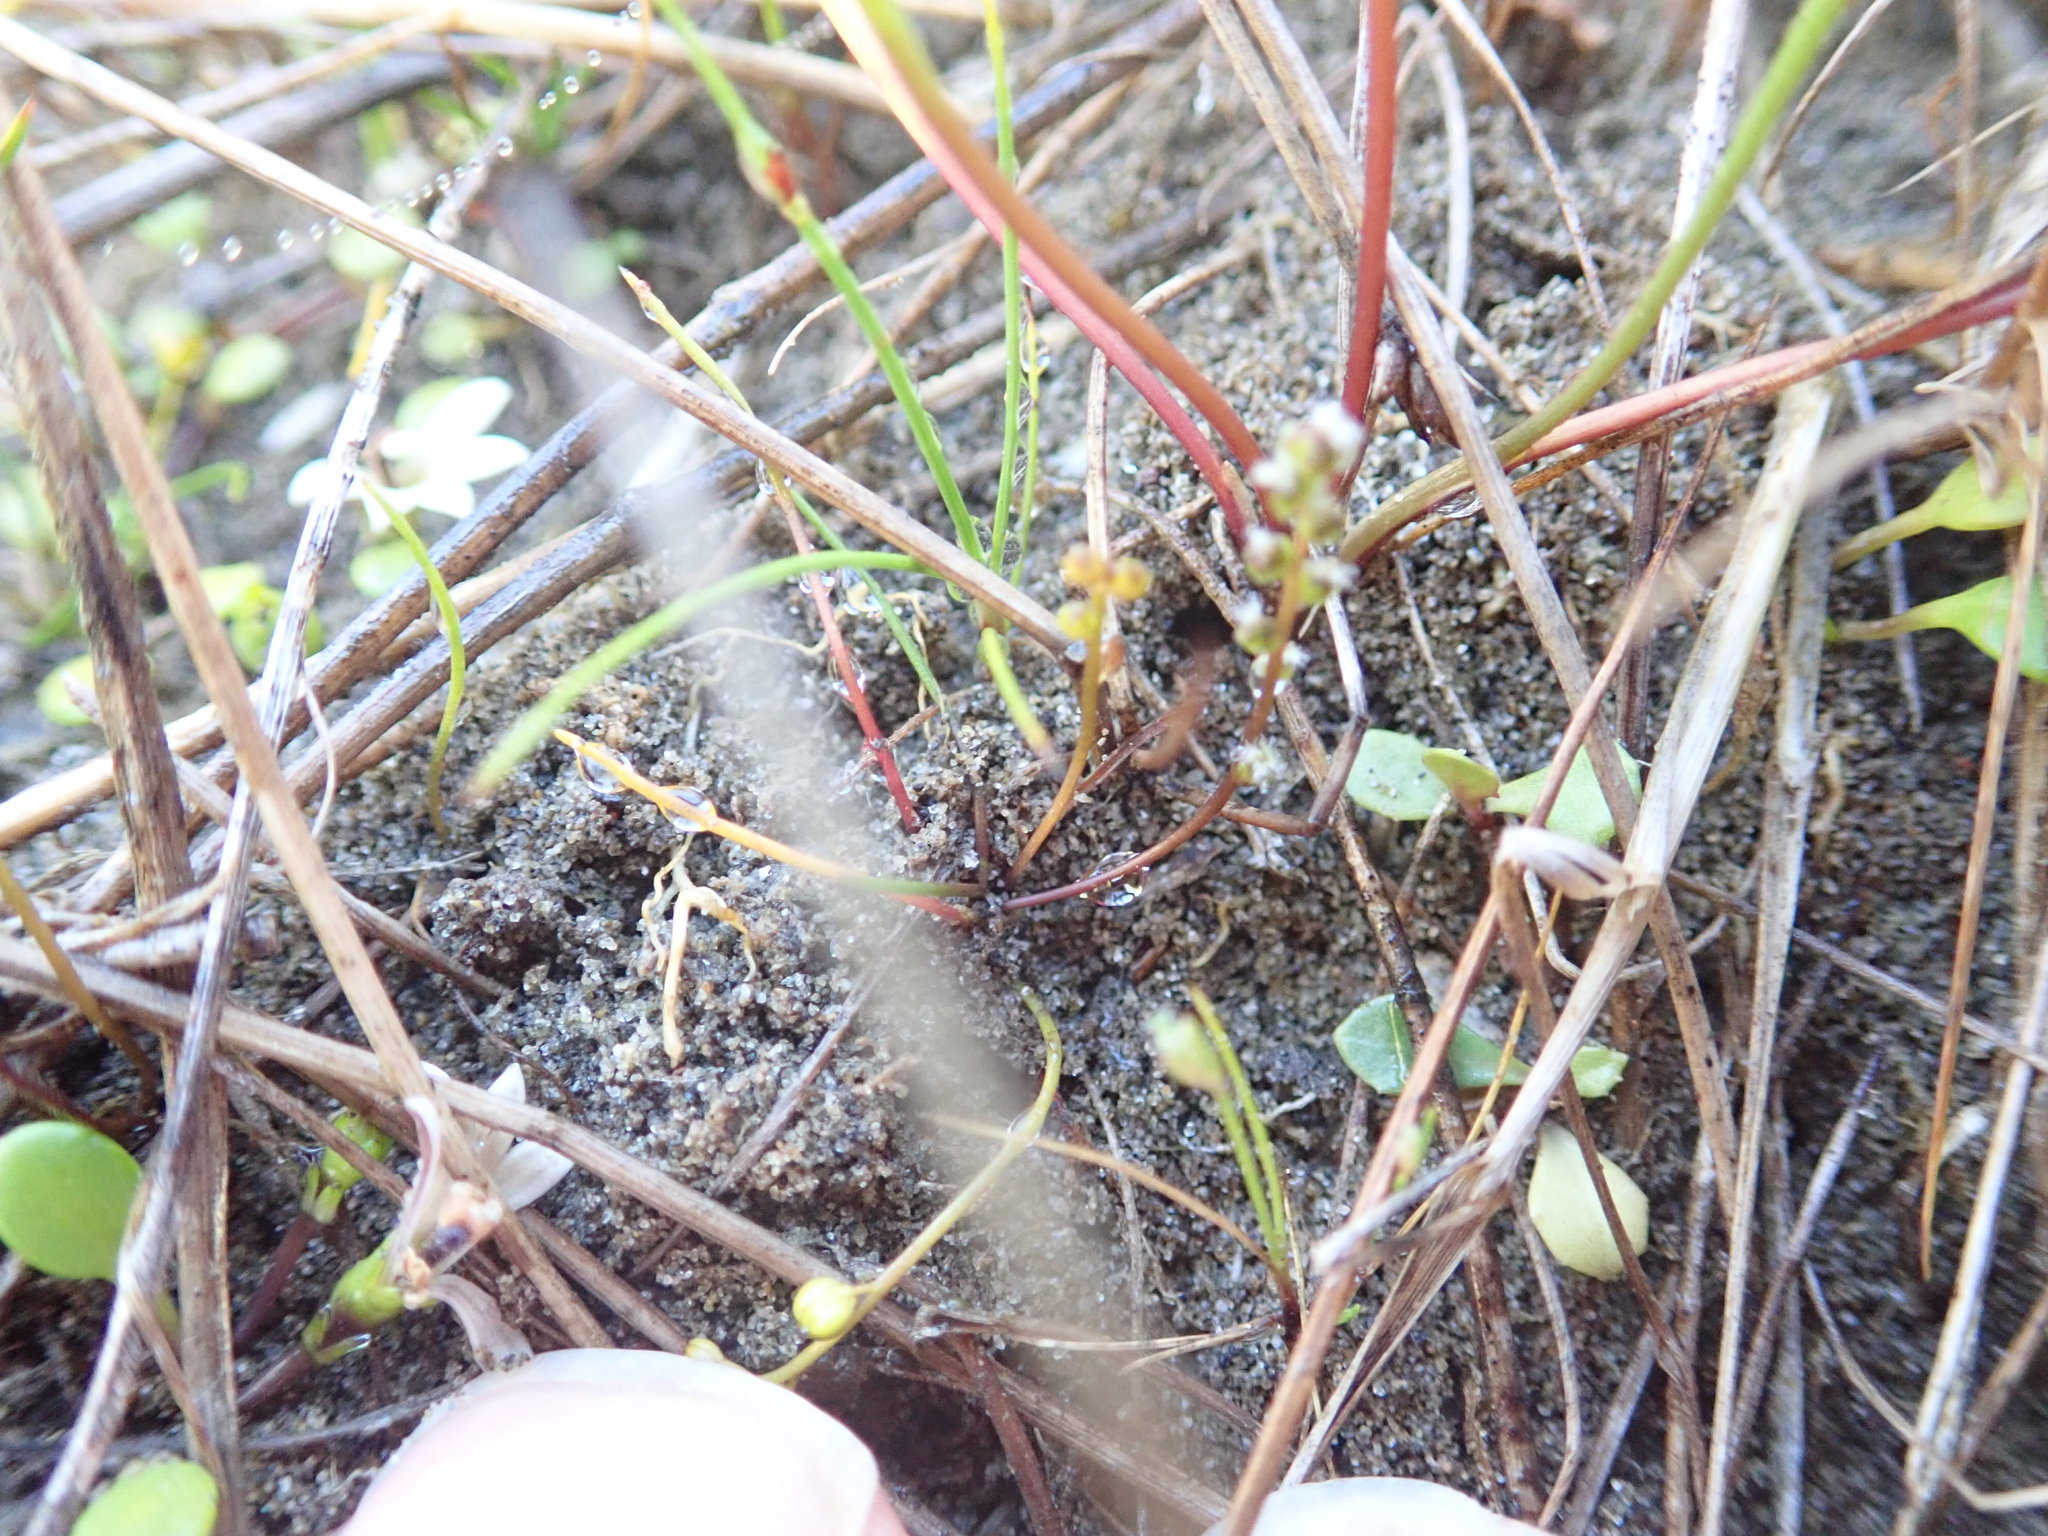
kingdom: Plantae
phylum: Tracheophyta
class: Liliopsida
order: Alismatales
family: Juncaginaceae
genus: Triglochin
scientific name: Triglochin striata
